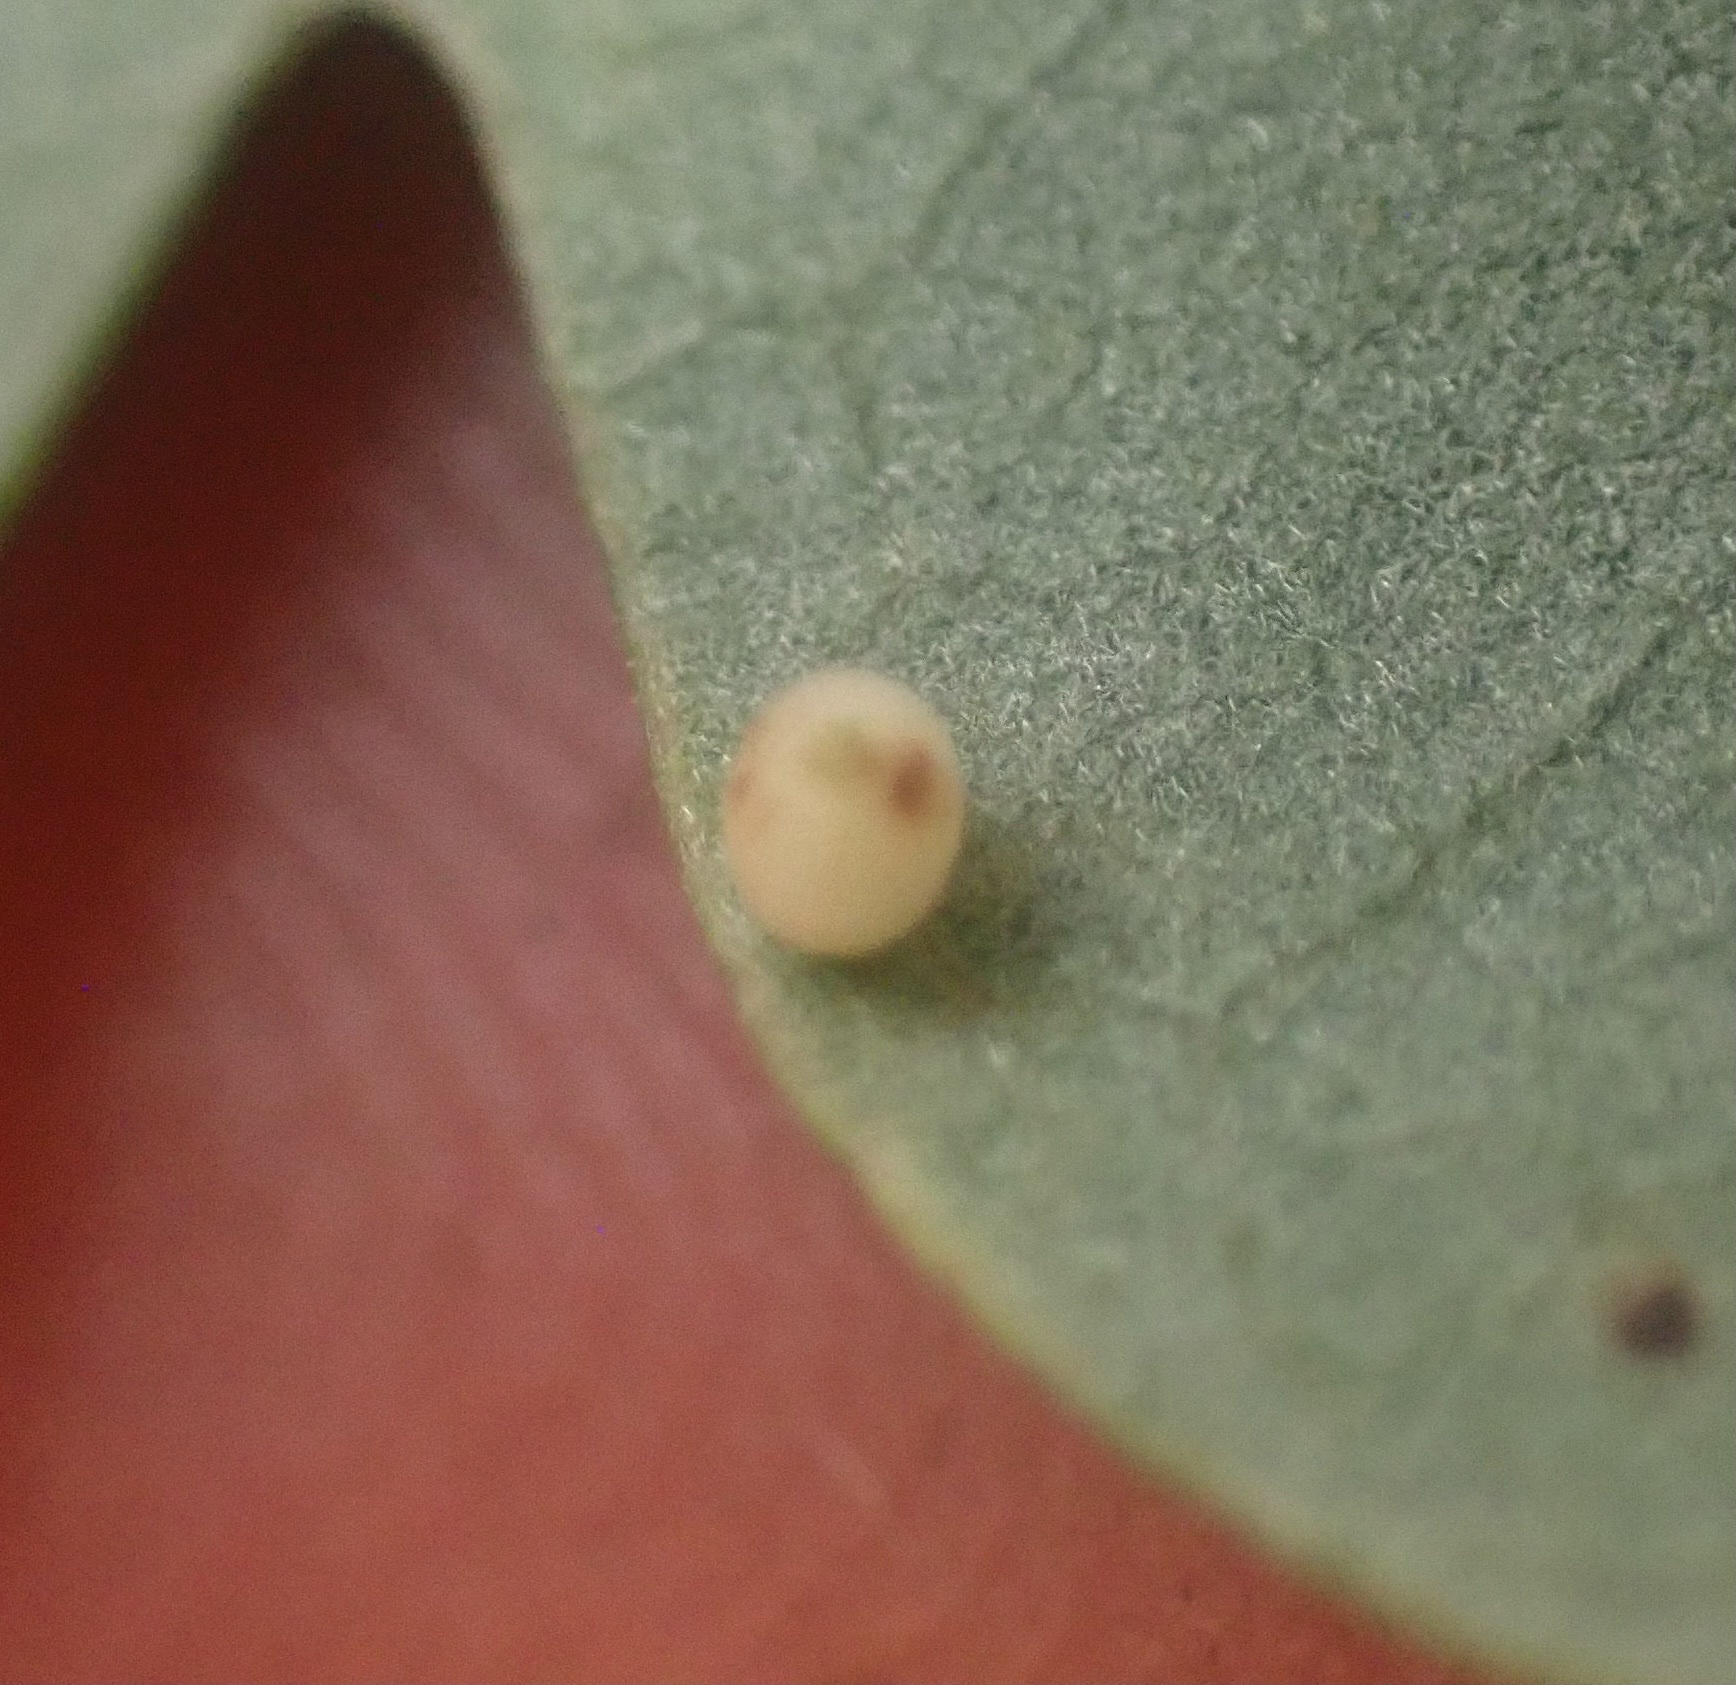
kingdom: Animalia
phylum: Arthropoda
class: Insecta
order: Hymenoptera
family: Cynipidae
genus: Neuroterus
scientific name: Neuroterus saltarius
